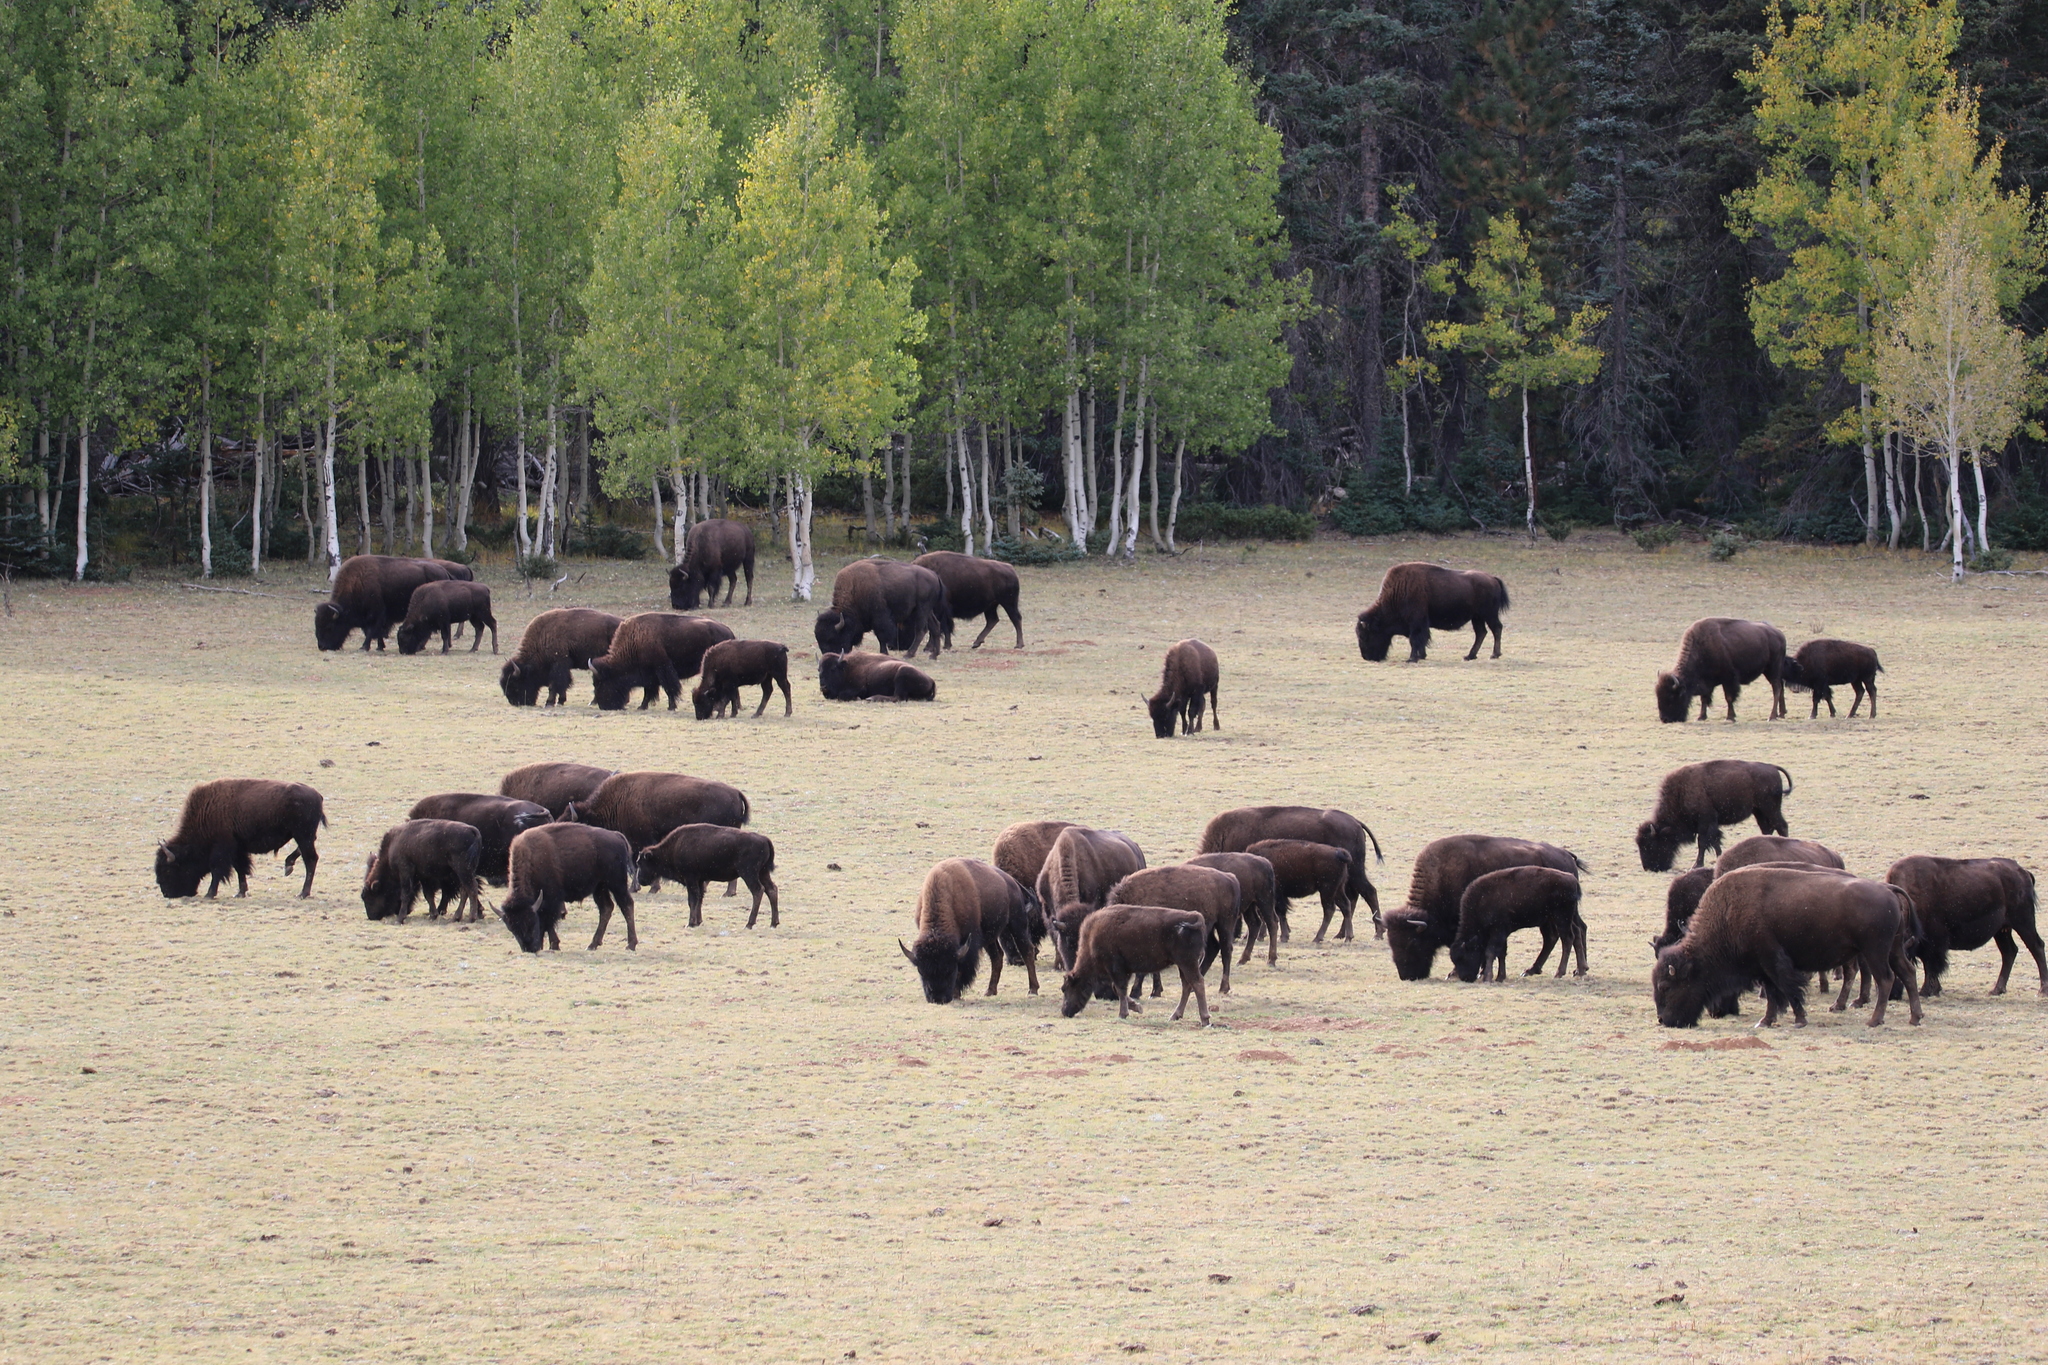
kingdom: Animalia
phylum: Chordata
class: Mammalia
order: Artiodactyla
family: Bovidae
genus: Bison
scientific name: Bison bison
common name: American bison
